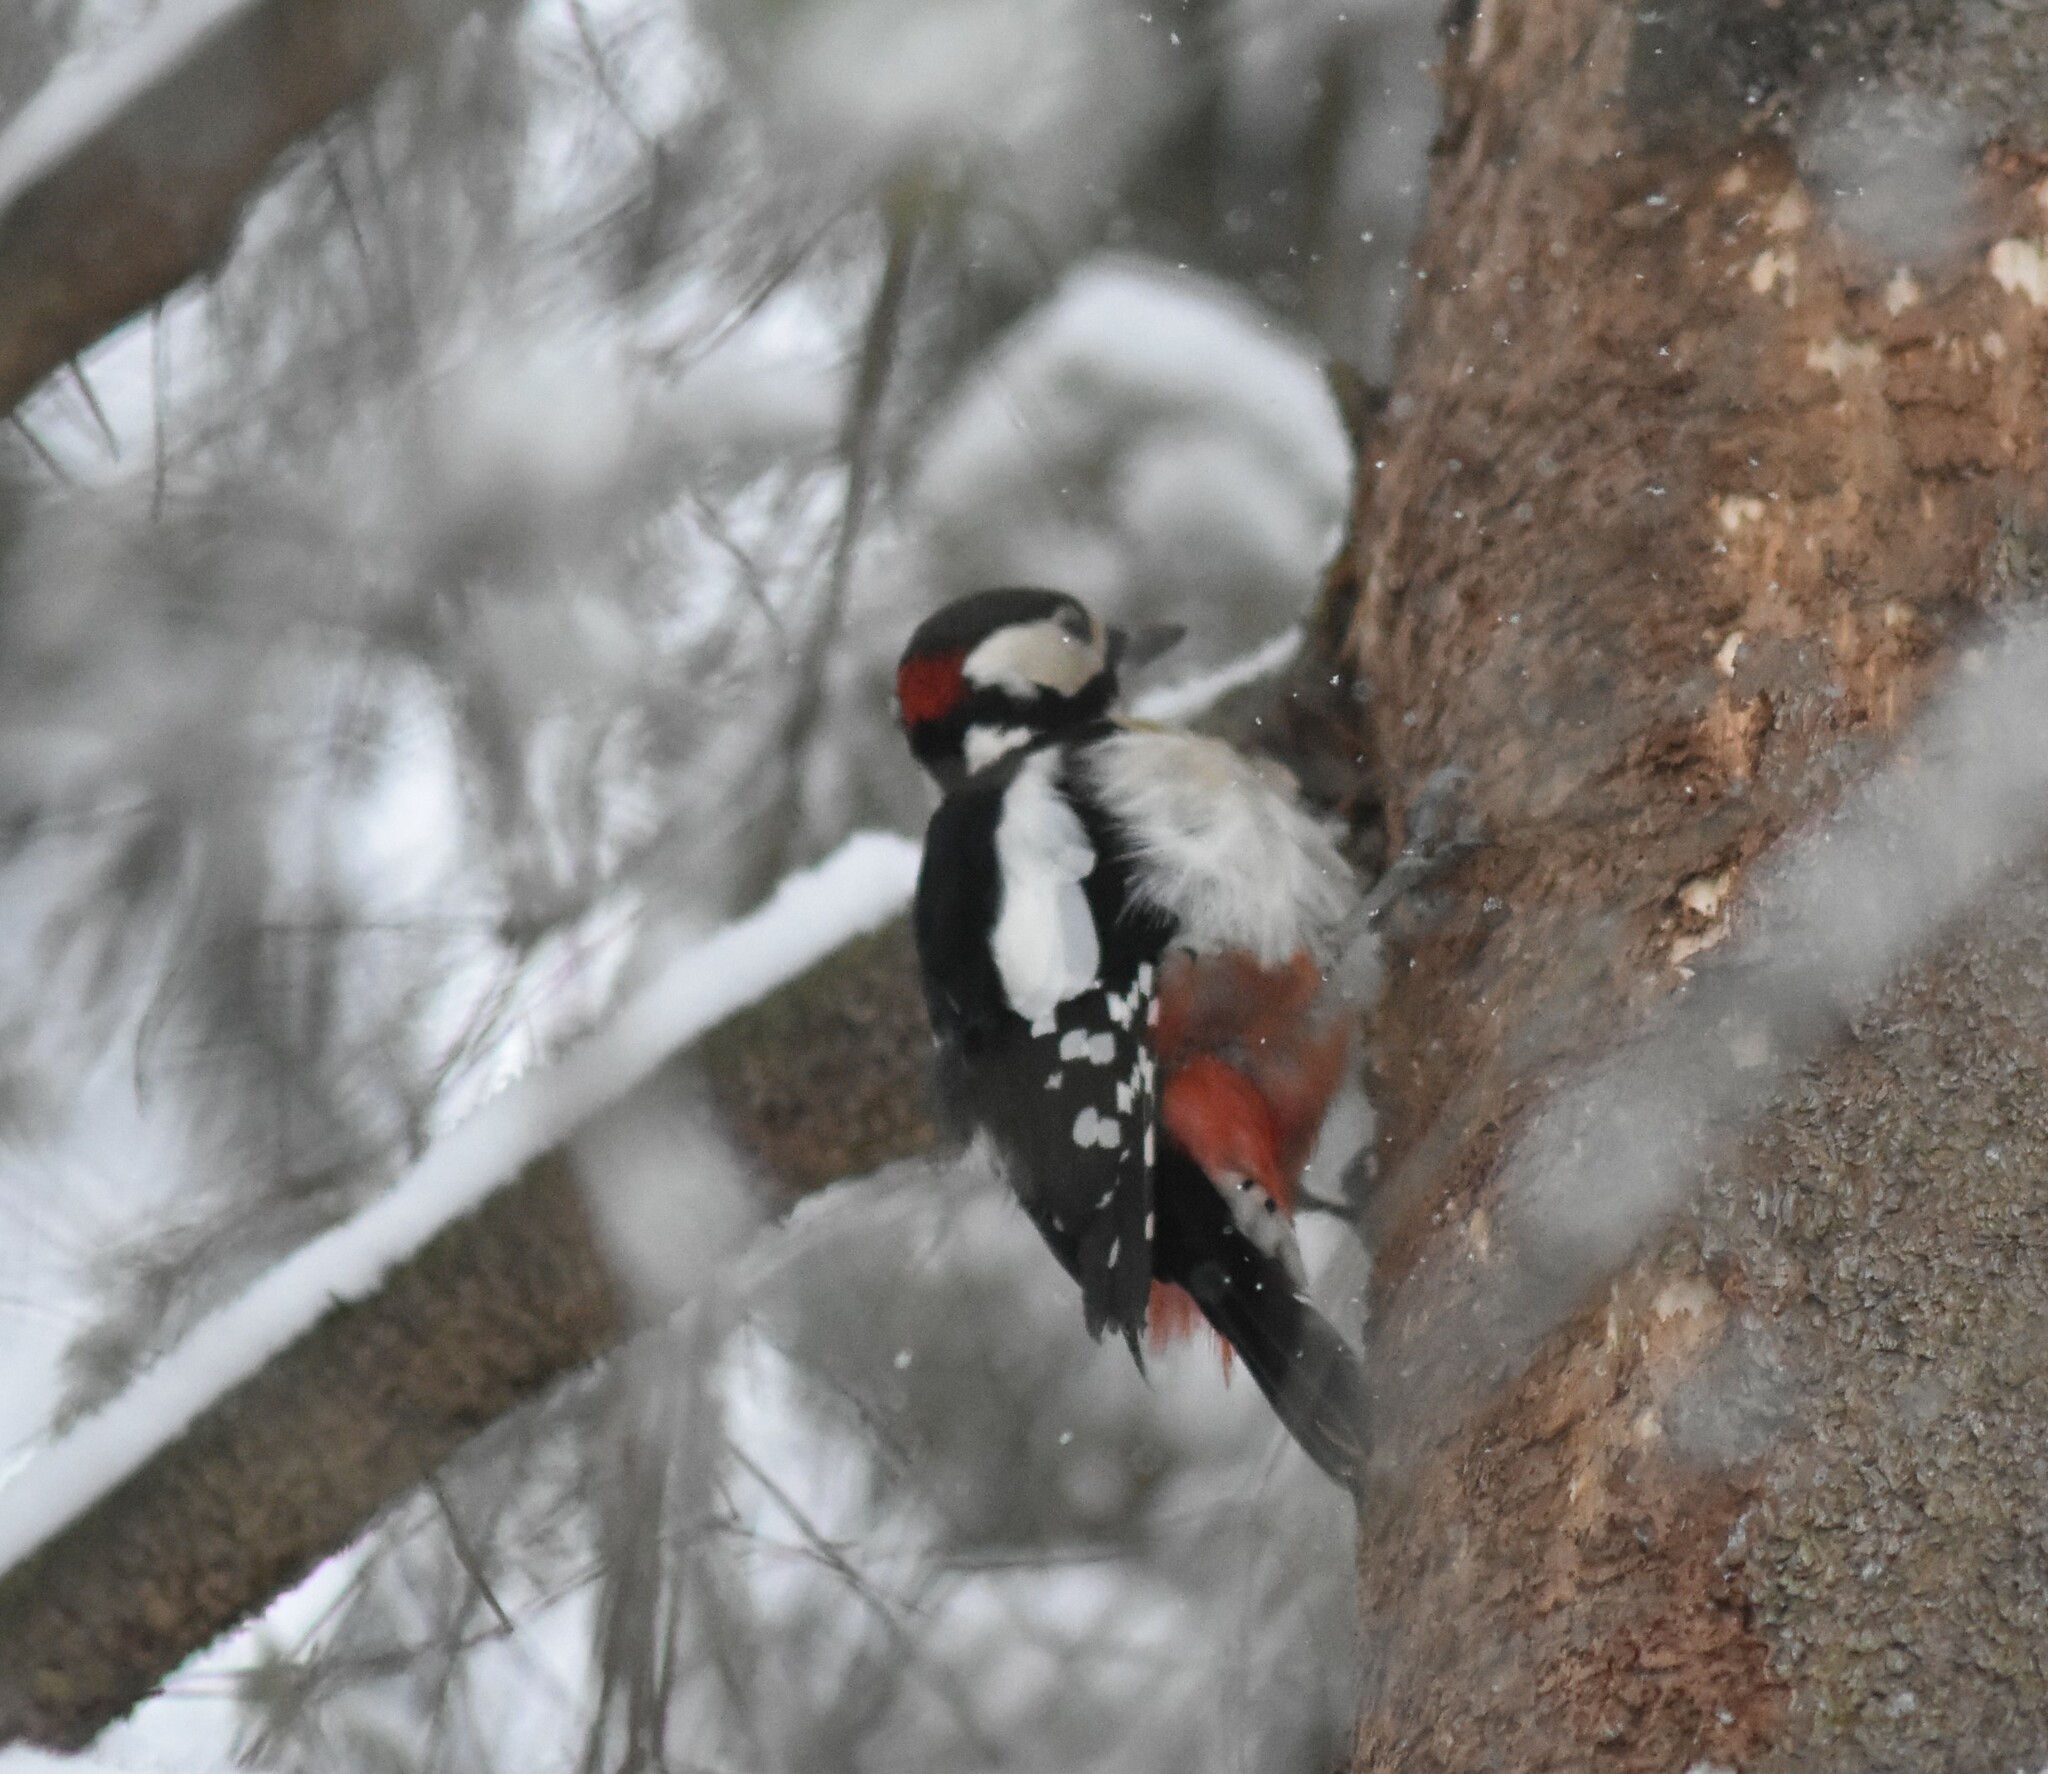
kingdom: Animalia
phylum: Chordata
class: Aves
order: Piciformes
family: Picidae
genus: Dendrocopos
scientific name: Dendrocopos major
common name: Great spotted woodpecker
